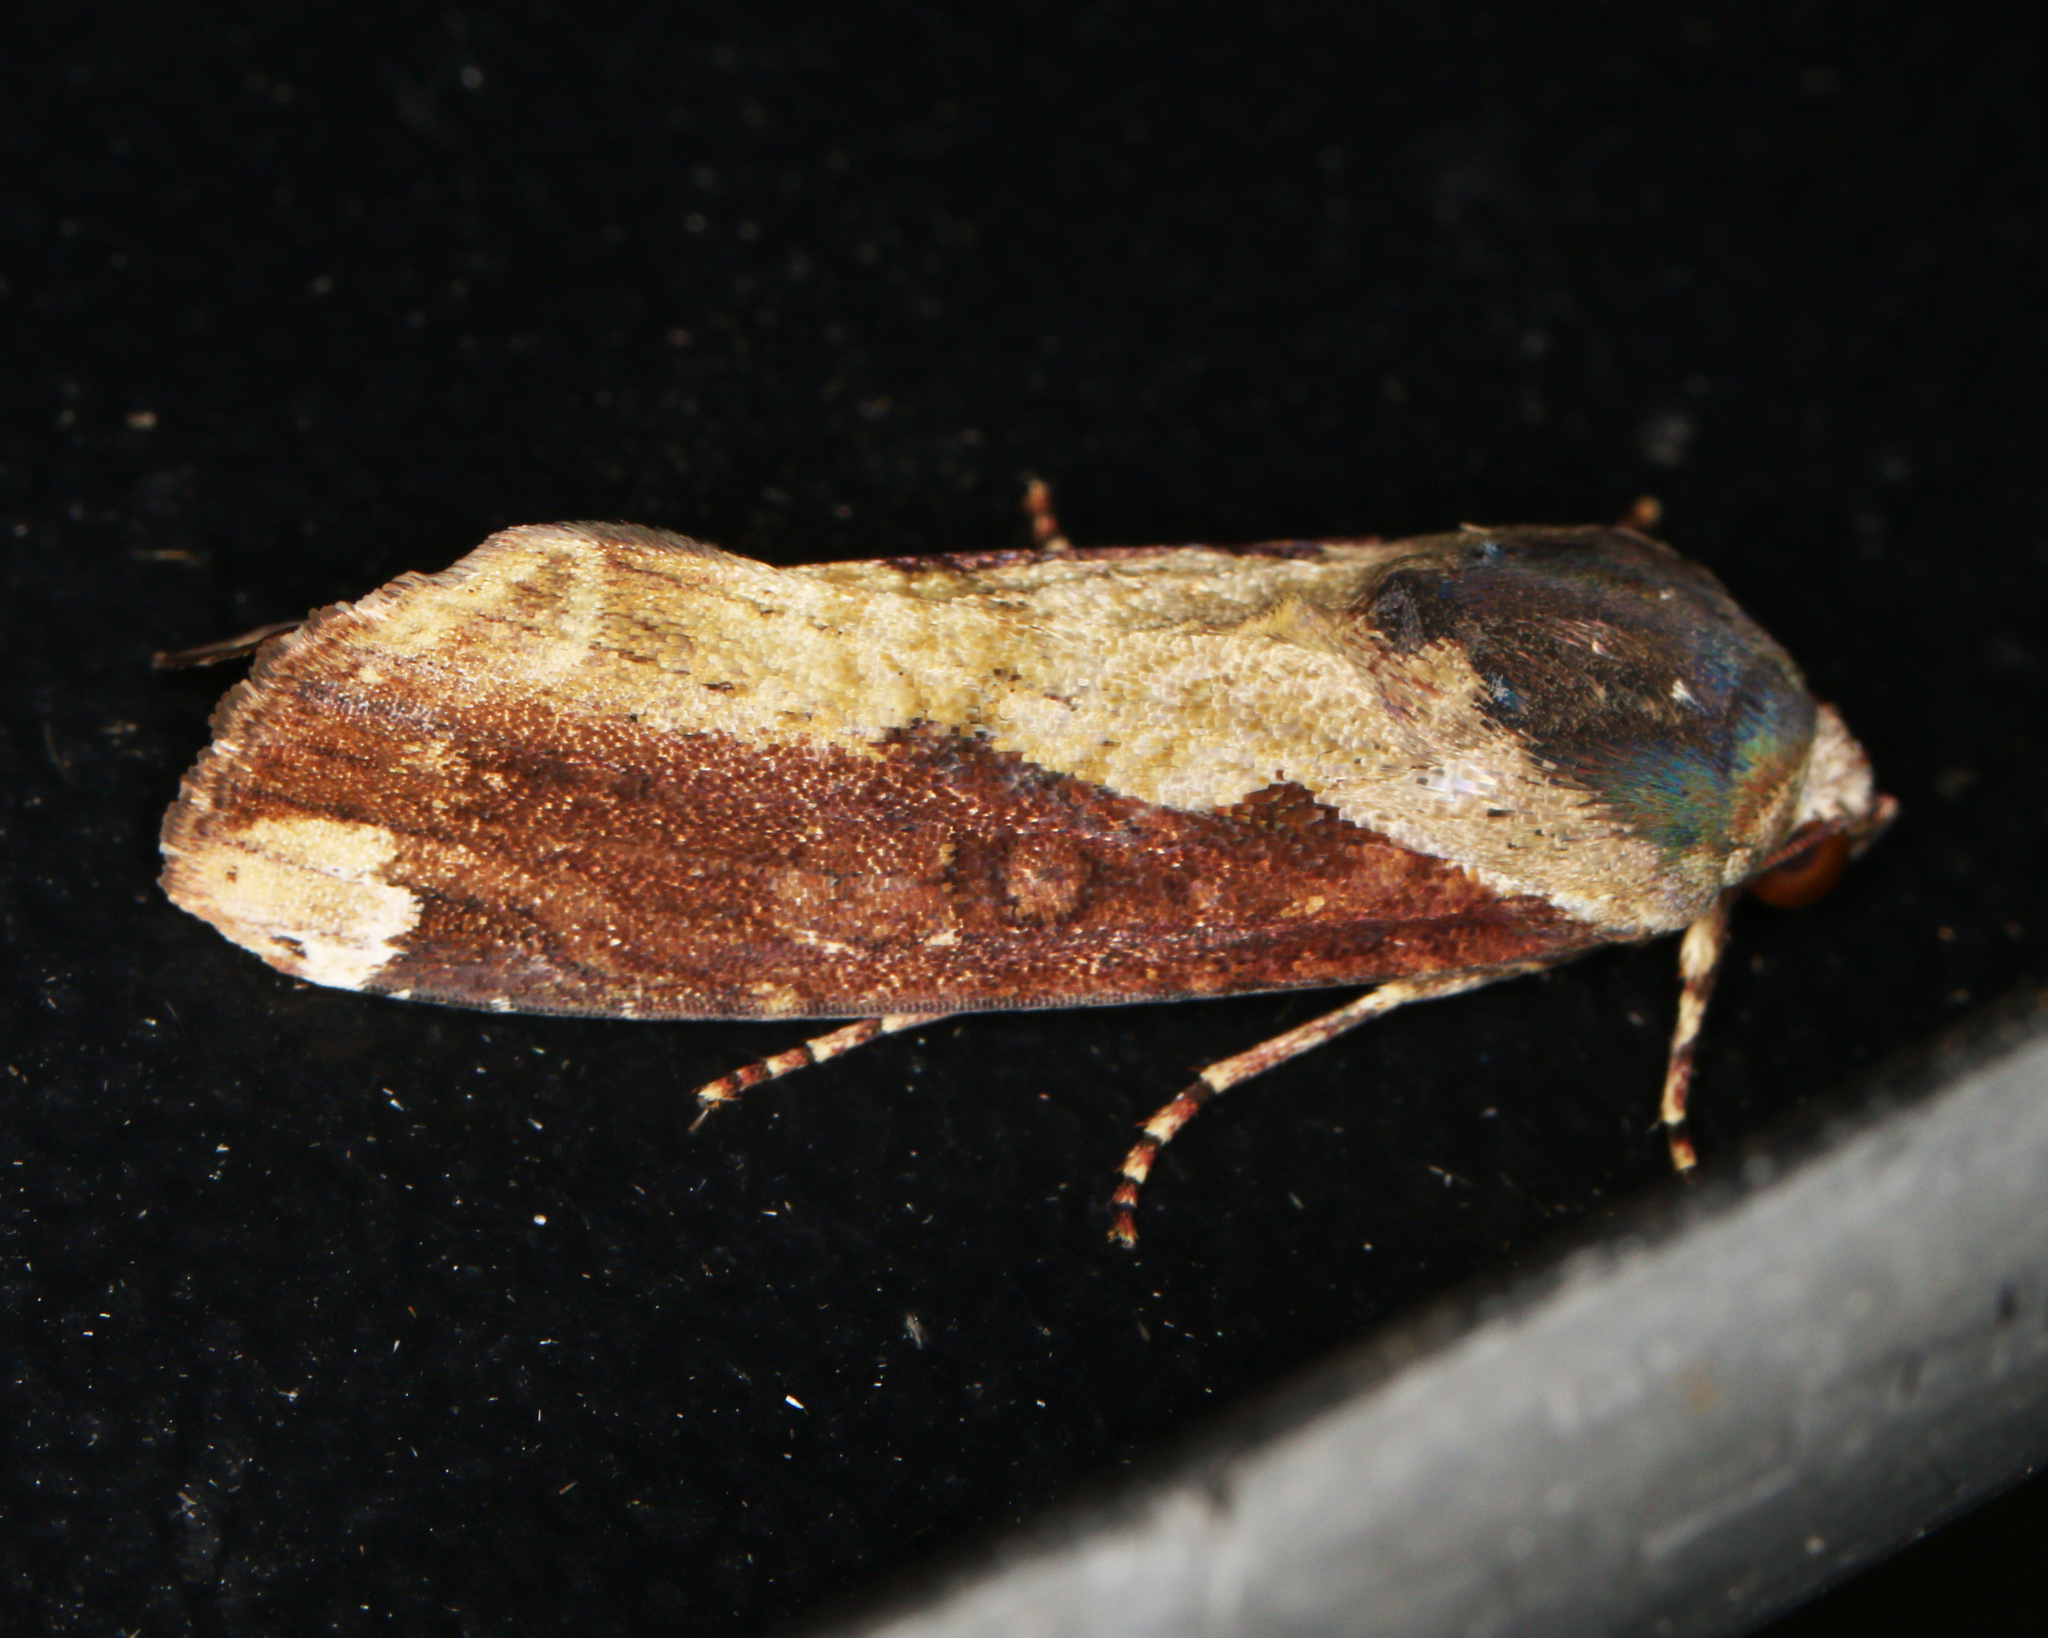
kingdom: Animalia
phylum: Arthropoda
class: Insecta
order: Lepidoptera
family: Noctuidae
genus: Magusa
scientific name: Magusa divaricata
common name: Orb narrow-winged moth
